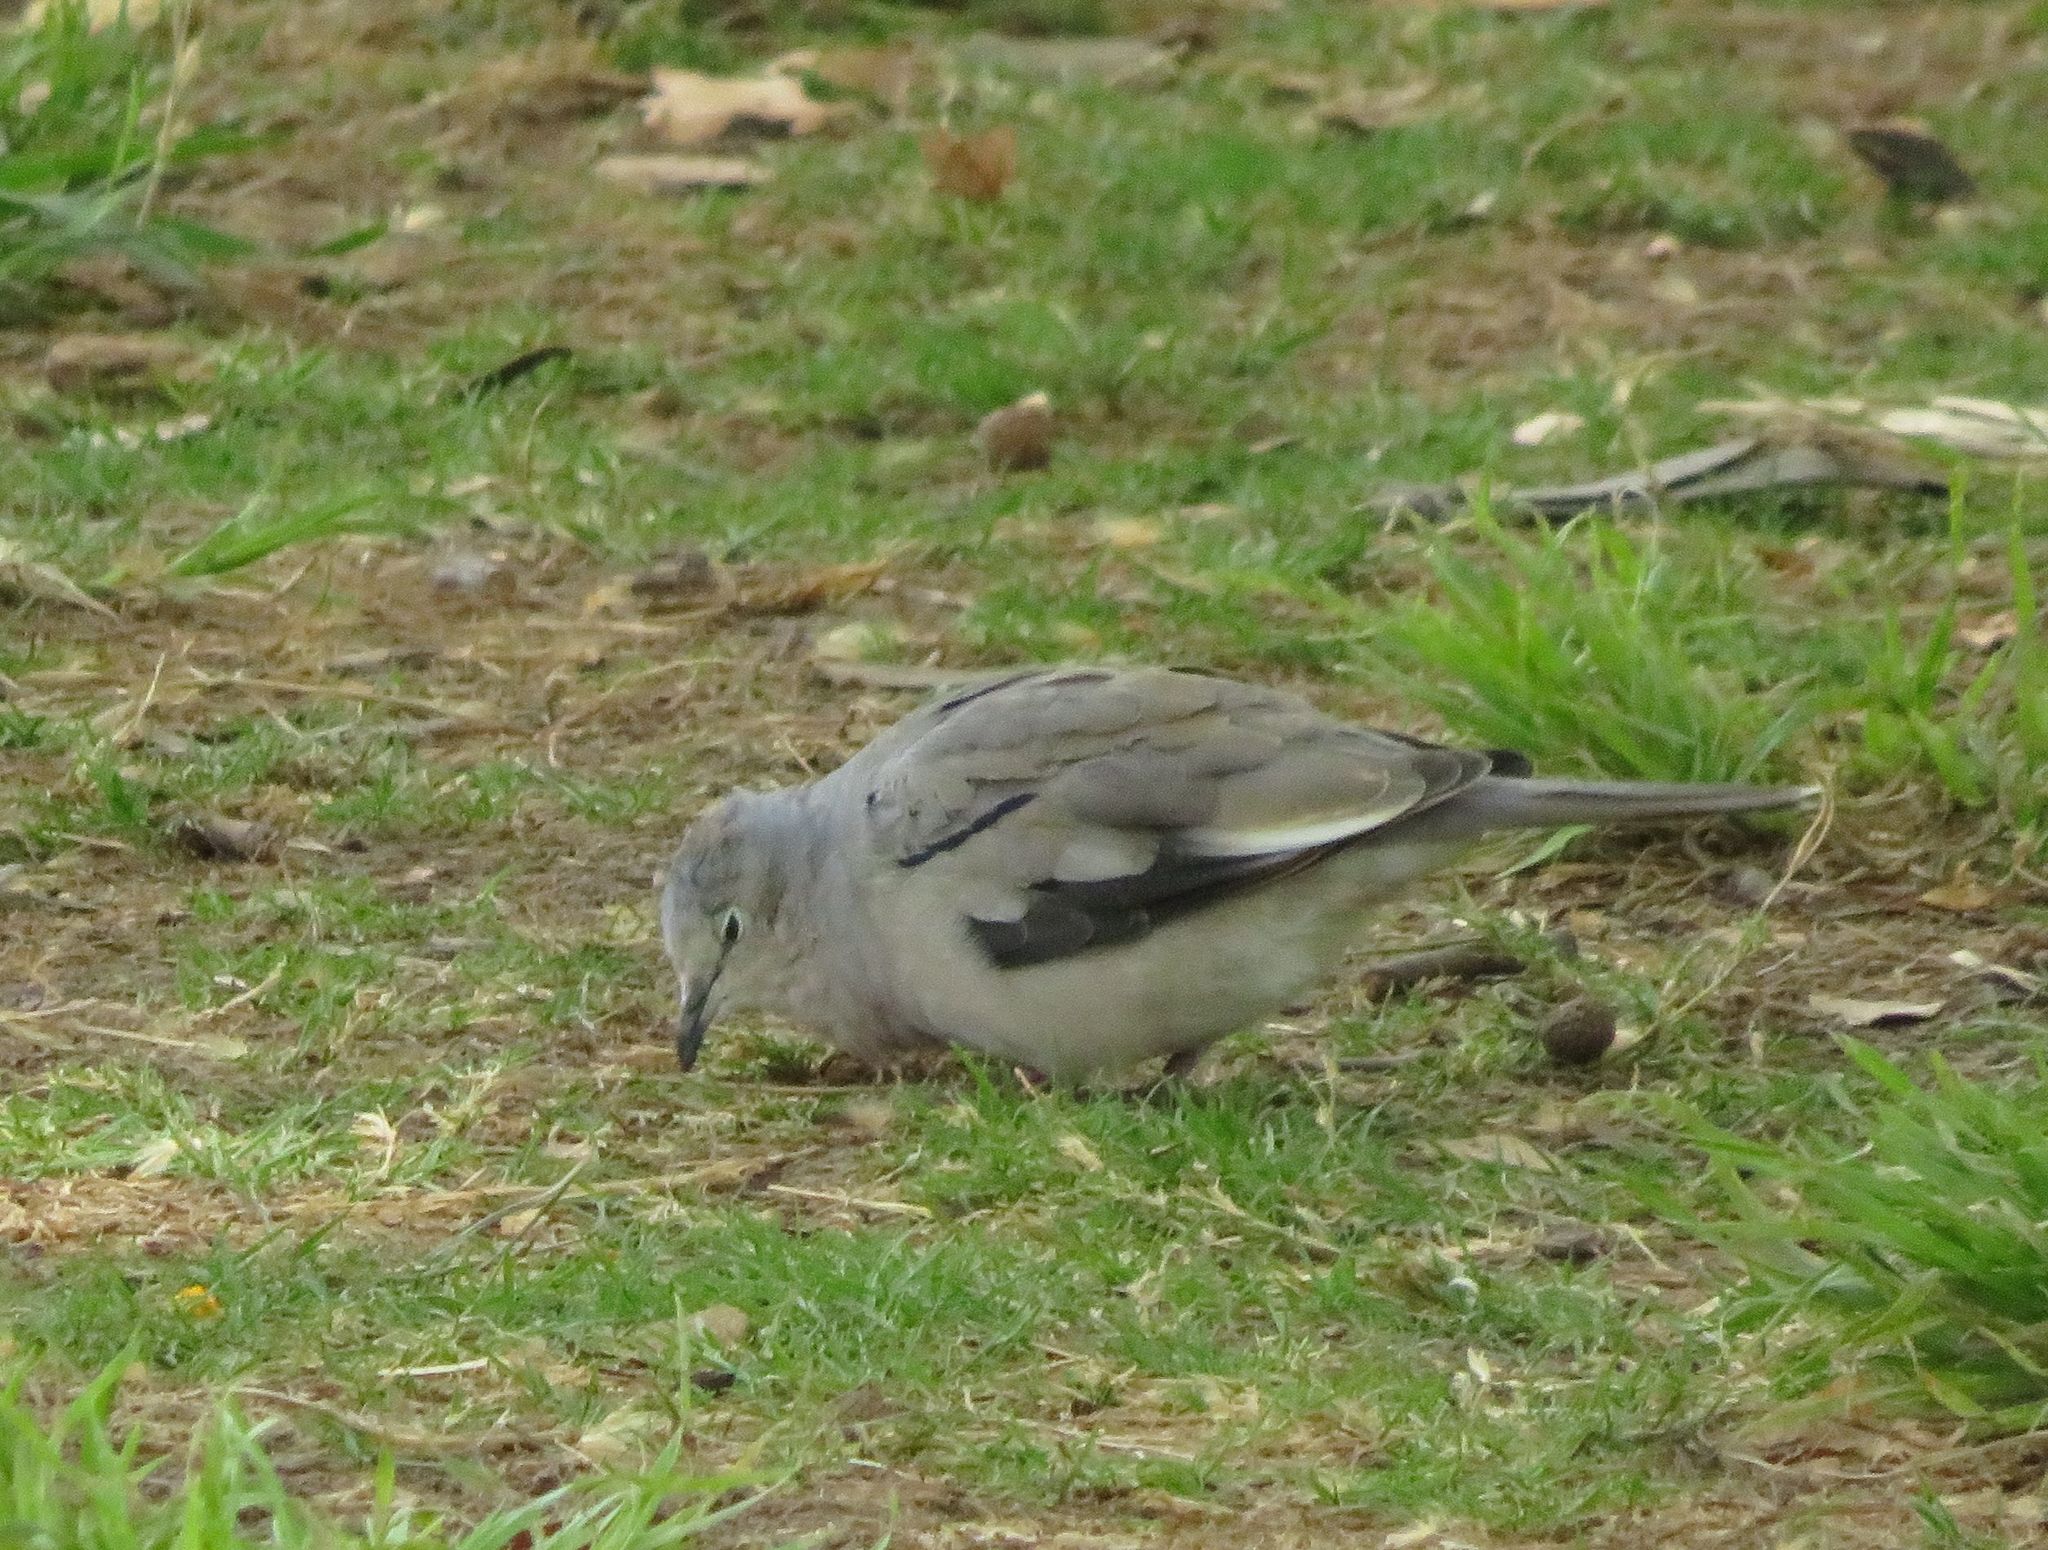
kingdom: Animalia
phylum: Chordata
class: Aves
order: Columbiformes
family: Columbidae
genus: Columbina
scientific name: Columbina picui
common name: Picui ground dove
